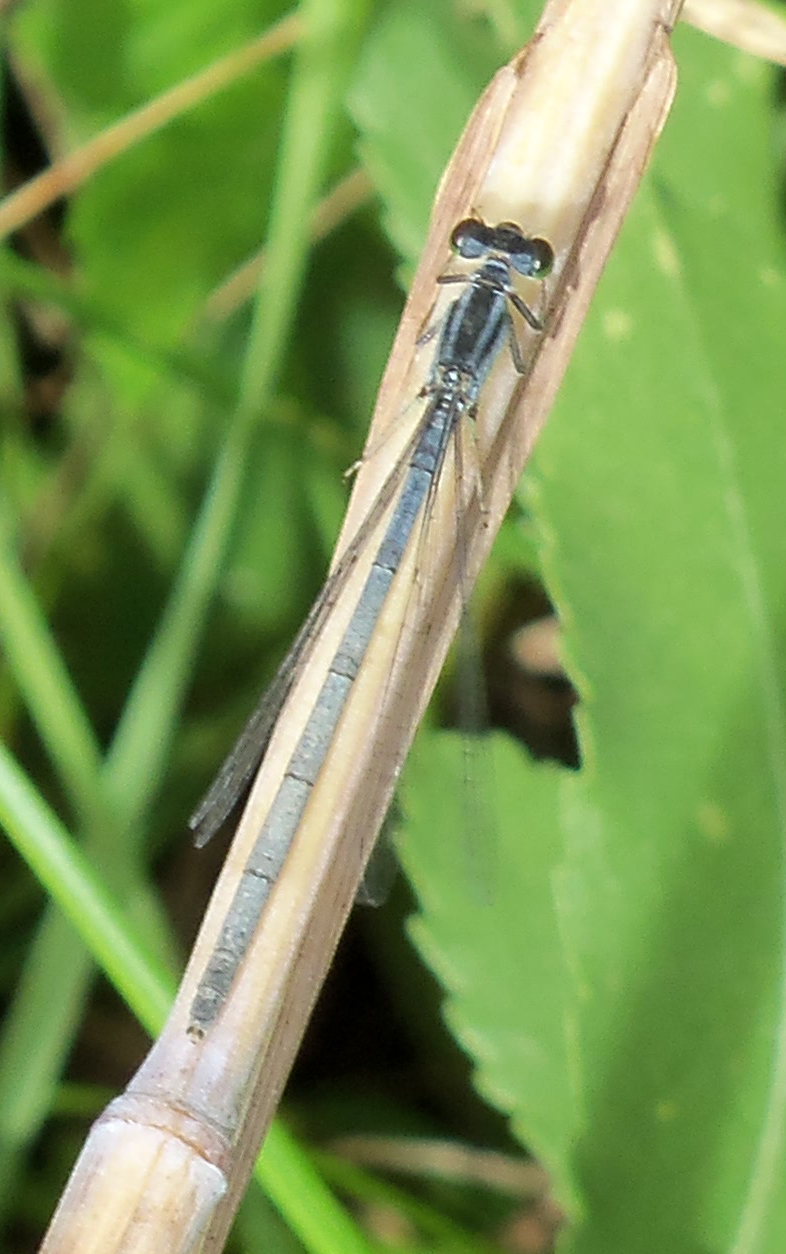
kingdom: Animalia
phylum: Arthropoda
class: Insecta
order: Odonata
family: Coenagrionidae
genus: Ischnura
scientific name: Ischnura verticalis
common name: Eastern forktail
